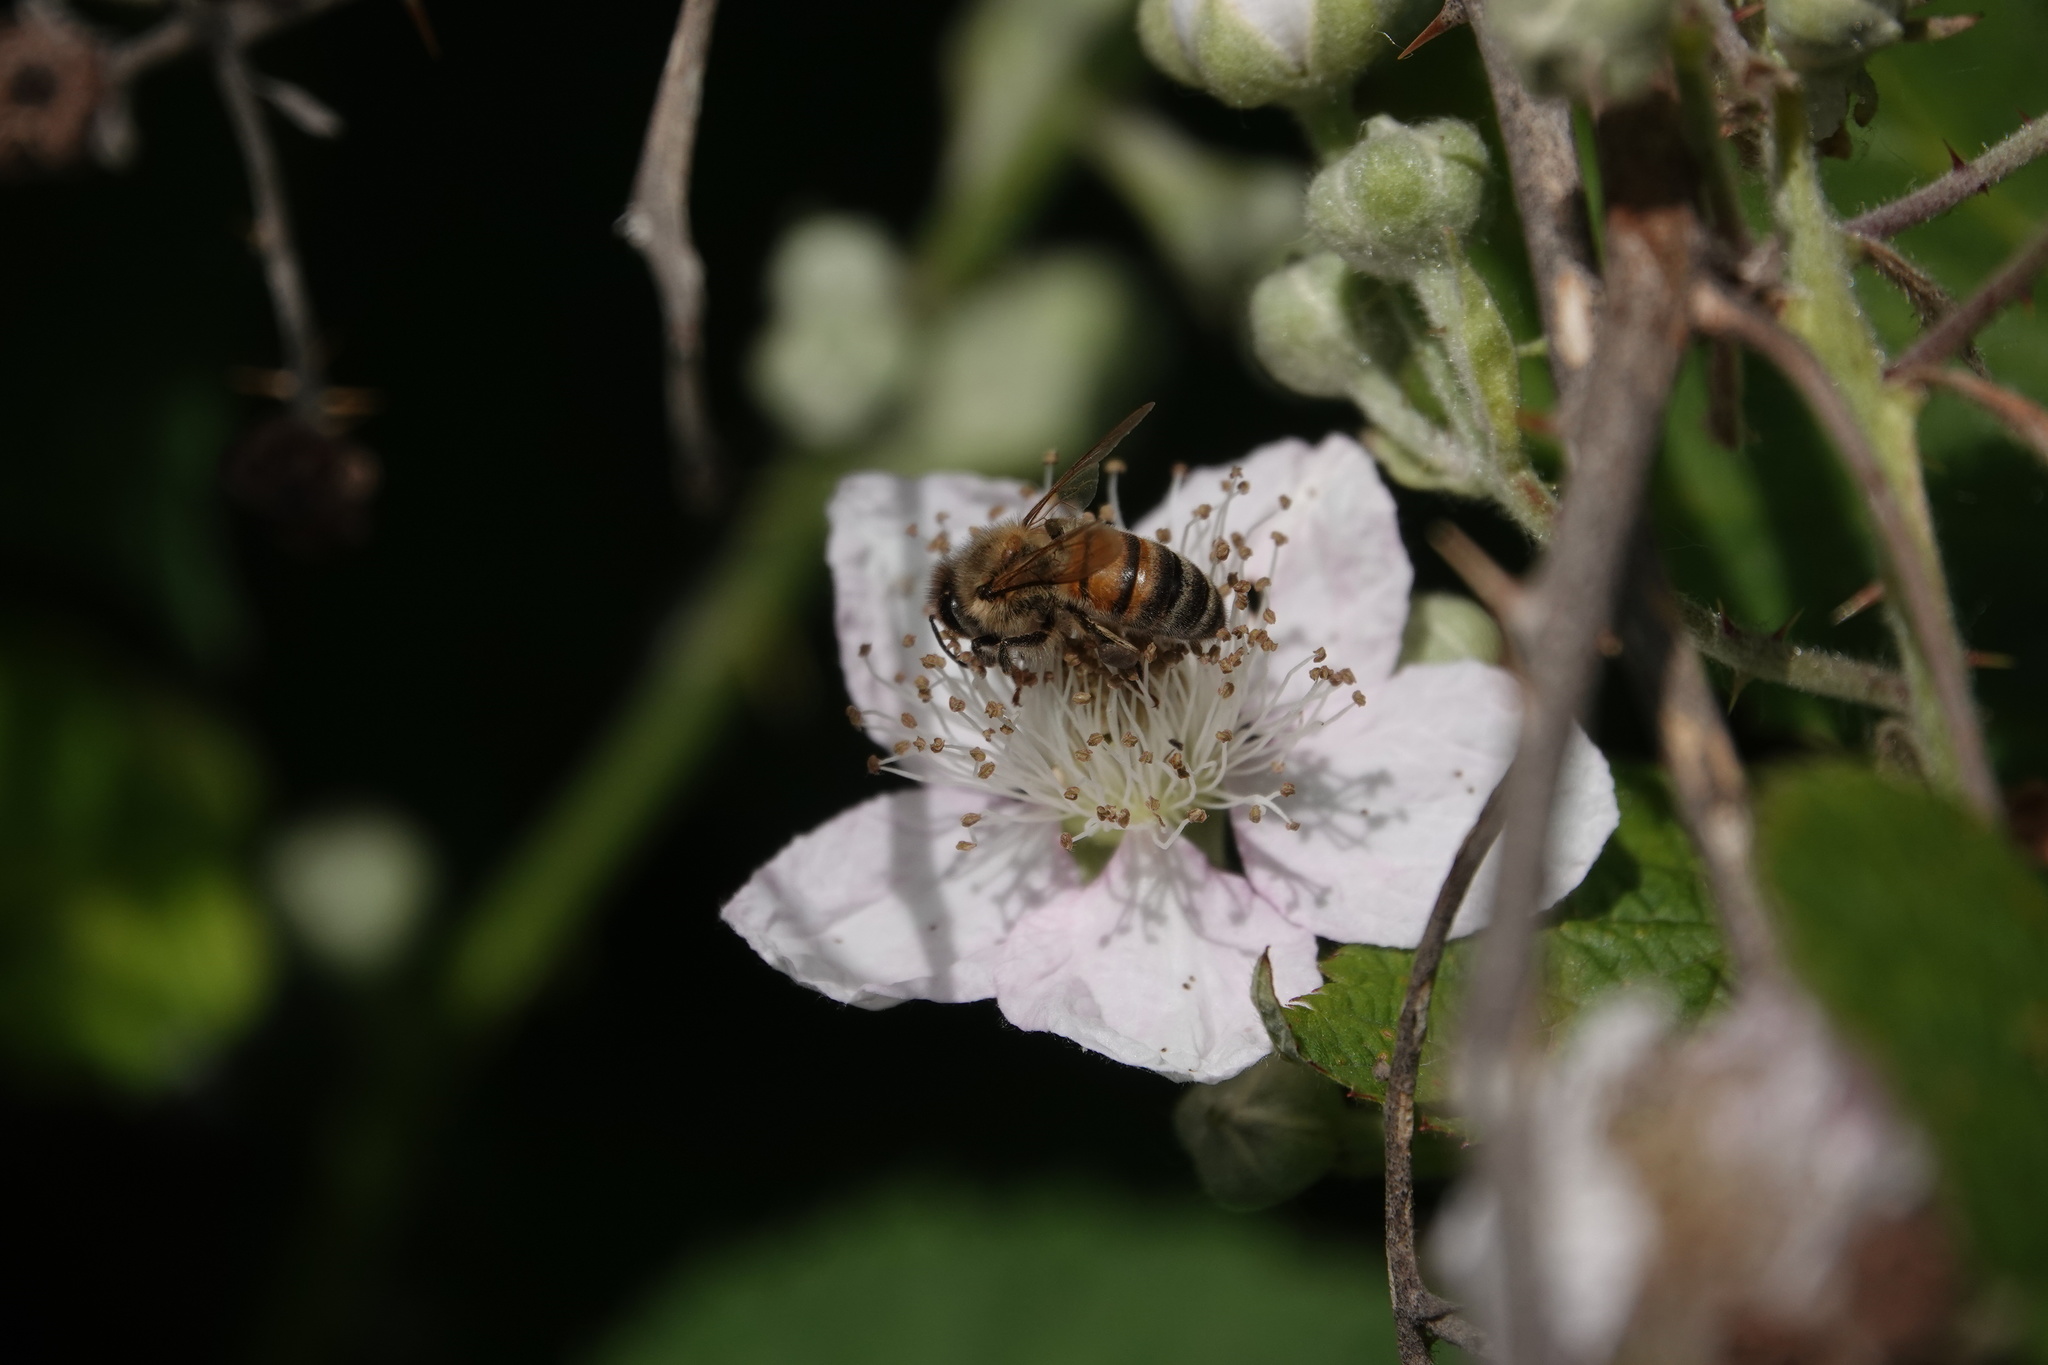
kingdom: Animalia
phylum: Arthropoda
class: Insecta
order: Hymenoptera
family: Apidae
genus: Apis
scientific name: Apis mellifera
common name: Honey bee
